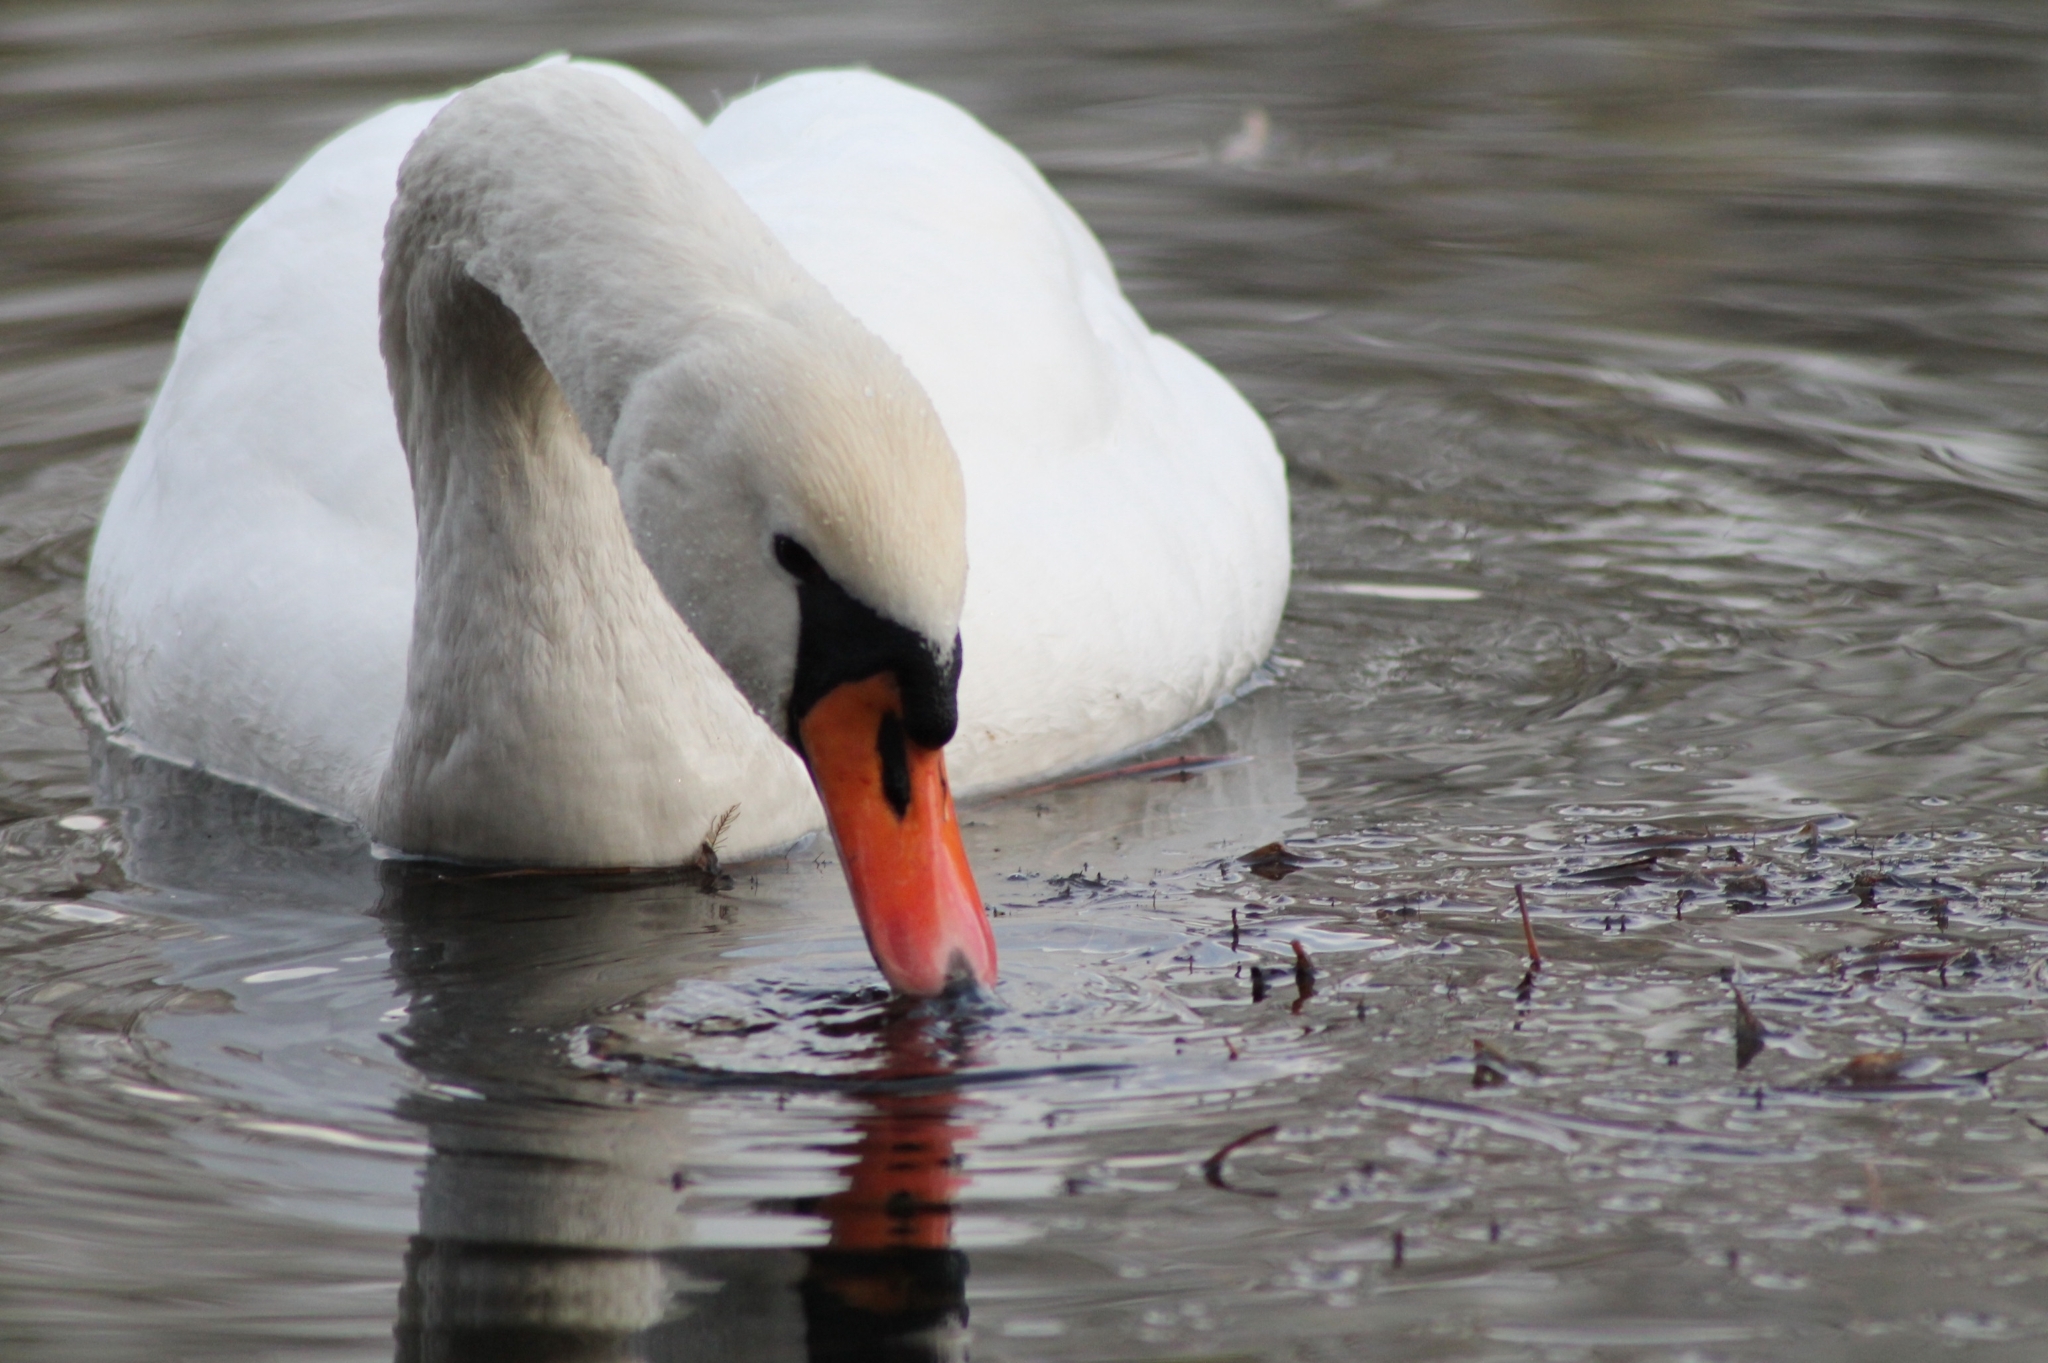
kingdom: Animalia
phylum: Chordata
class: Aves
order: Anseriformes
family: Anatidae
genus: Cygnus
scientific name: Cygnus olor
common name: Mute swan
